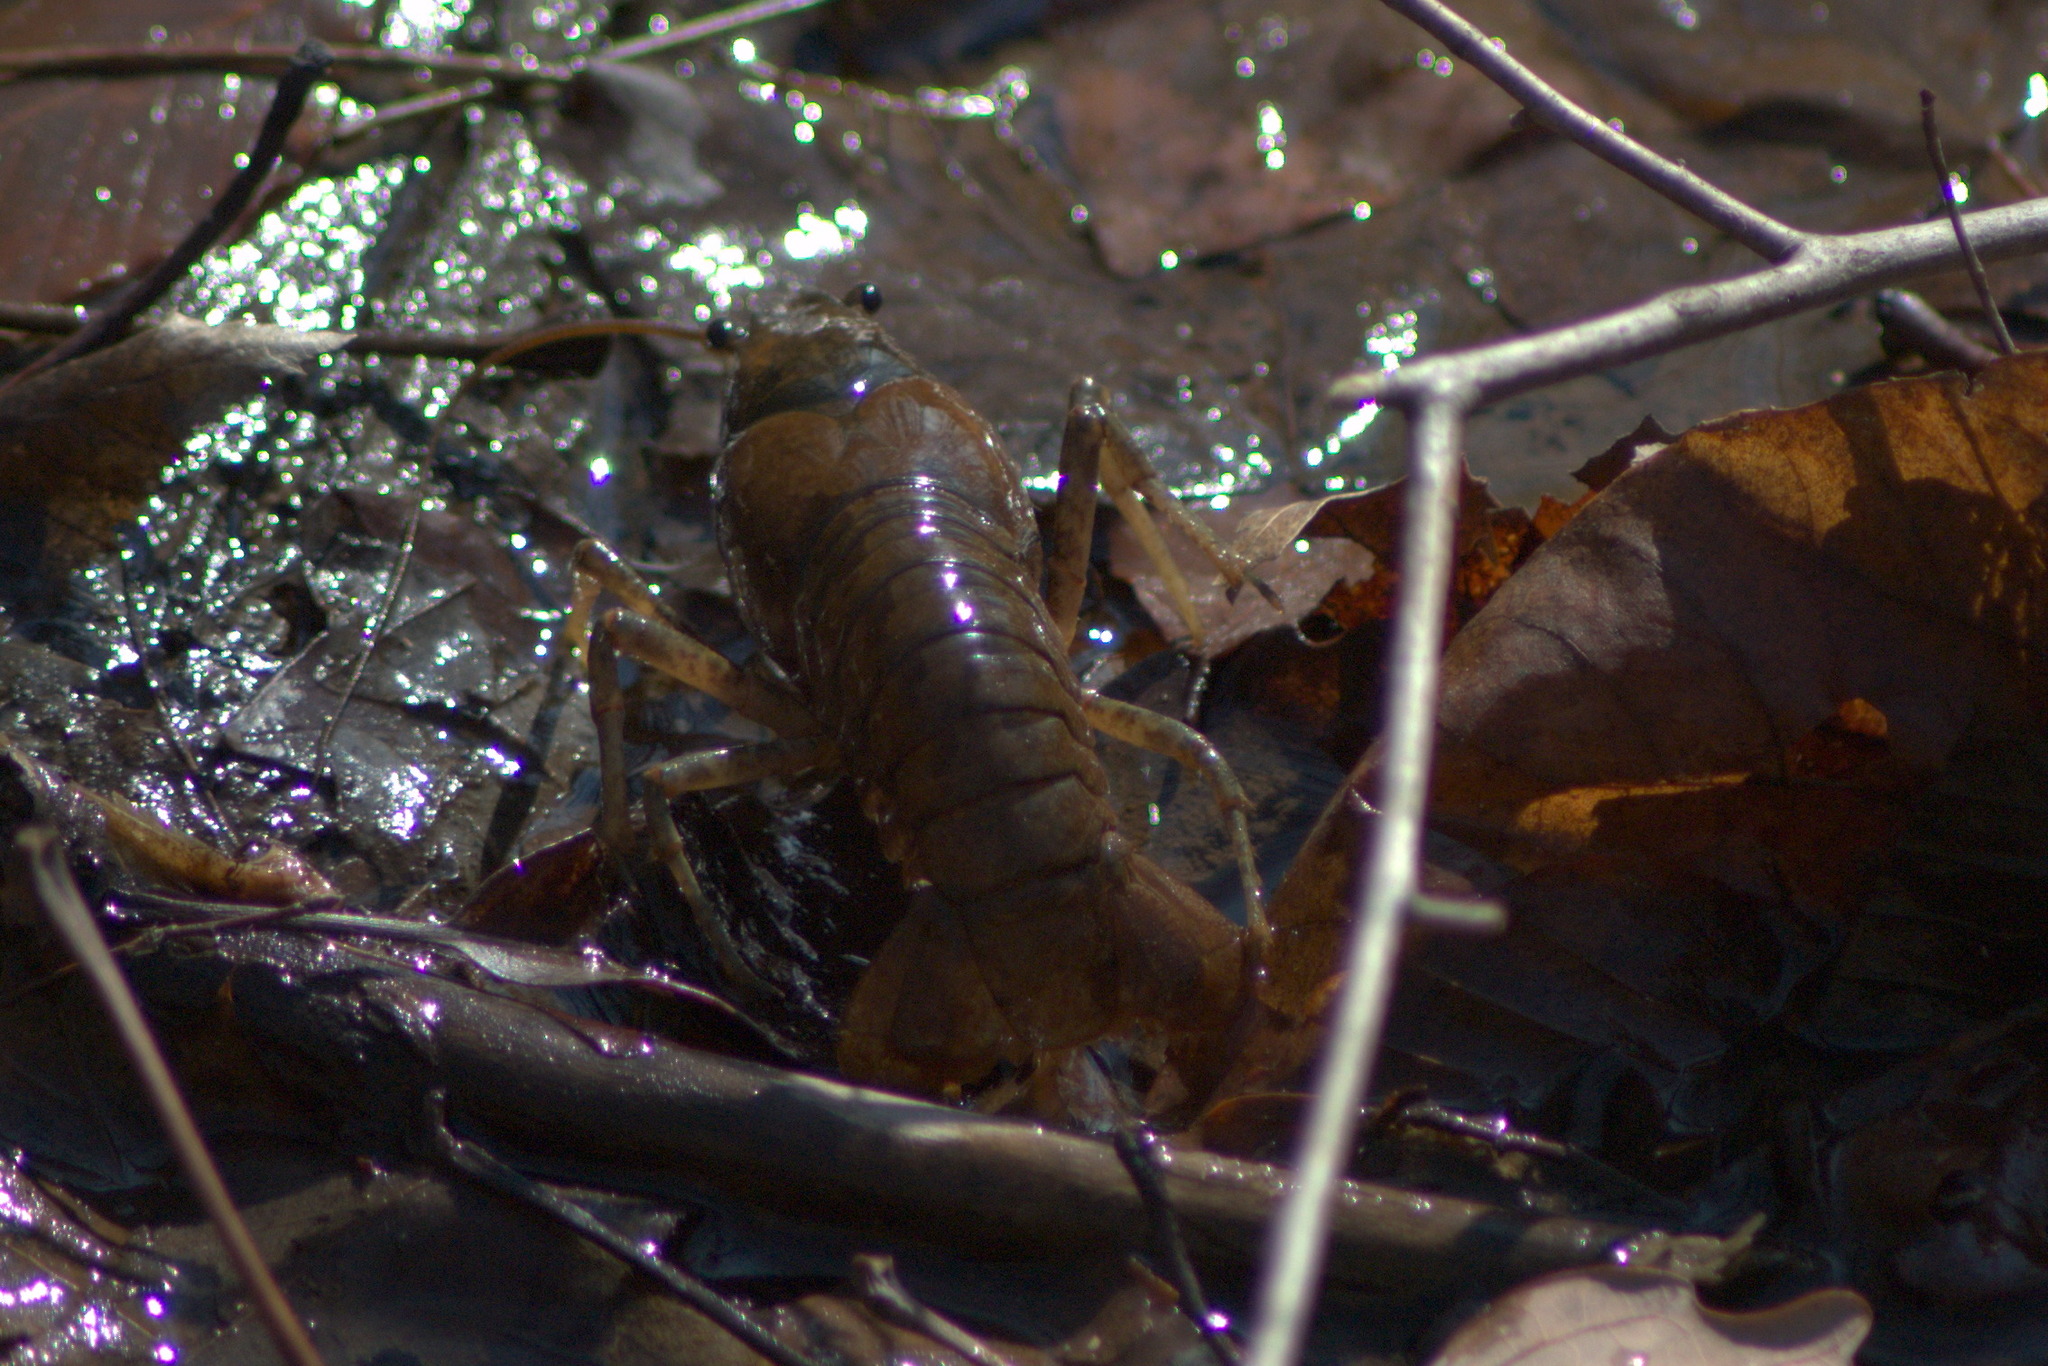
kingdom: Animalia
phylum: Arthropoda
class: Malacostraca
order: Decapoda
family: Cambaridae
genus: Faxonius
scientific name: Faxonius virilis
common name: Virile crayfish
